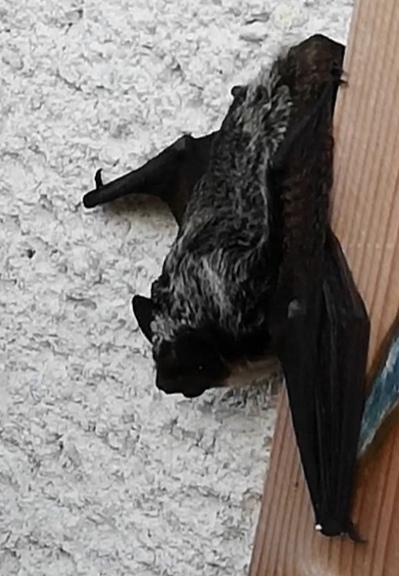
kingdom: Animalia
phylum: Chordata
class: Mammalia
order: Chiroptera
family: Vespertilionidae
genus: Vespertilio
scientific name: Vespertilio murinus
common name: Particolored bat
